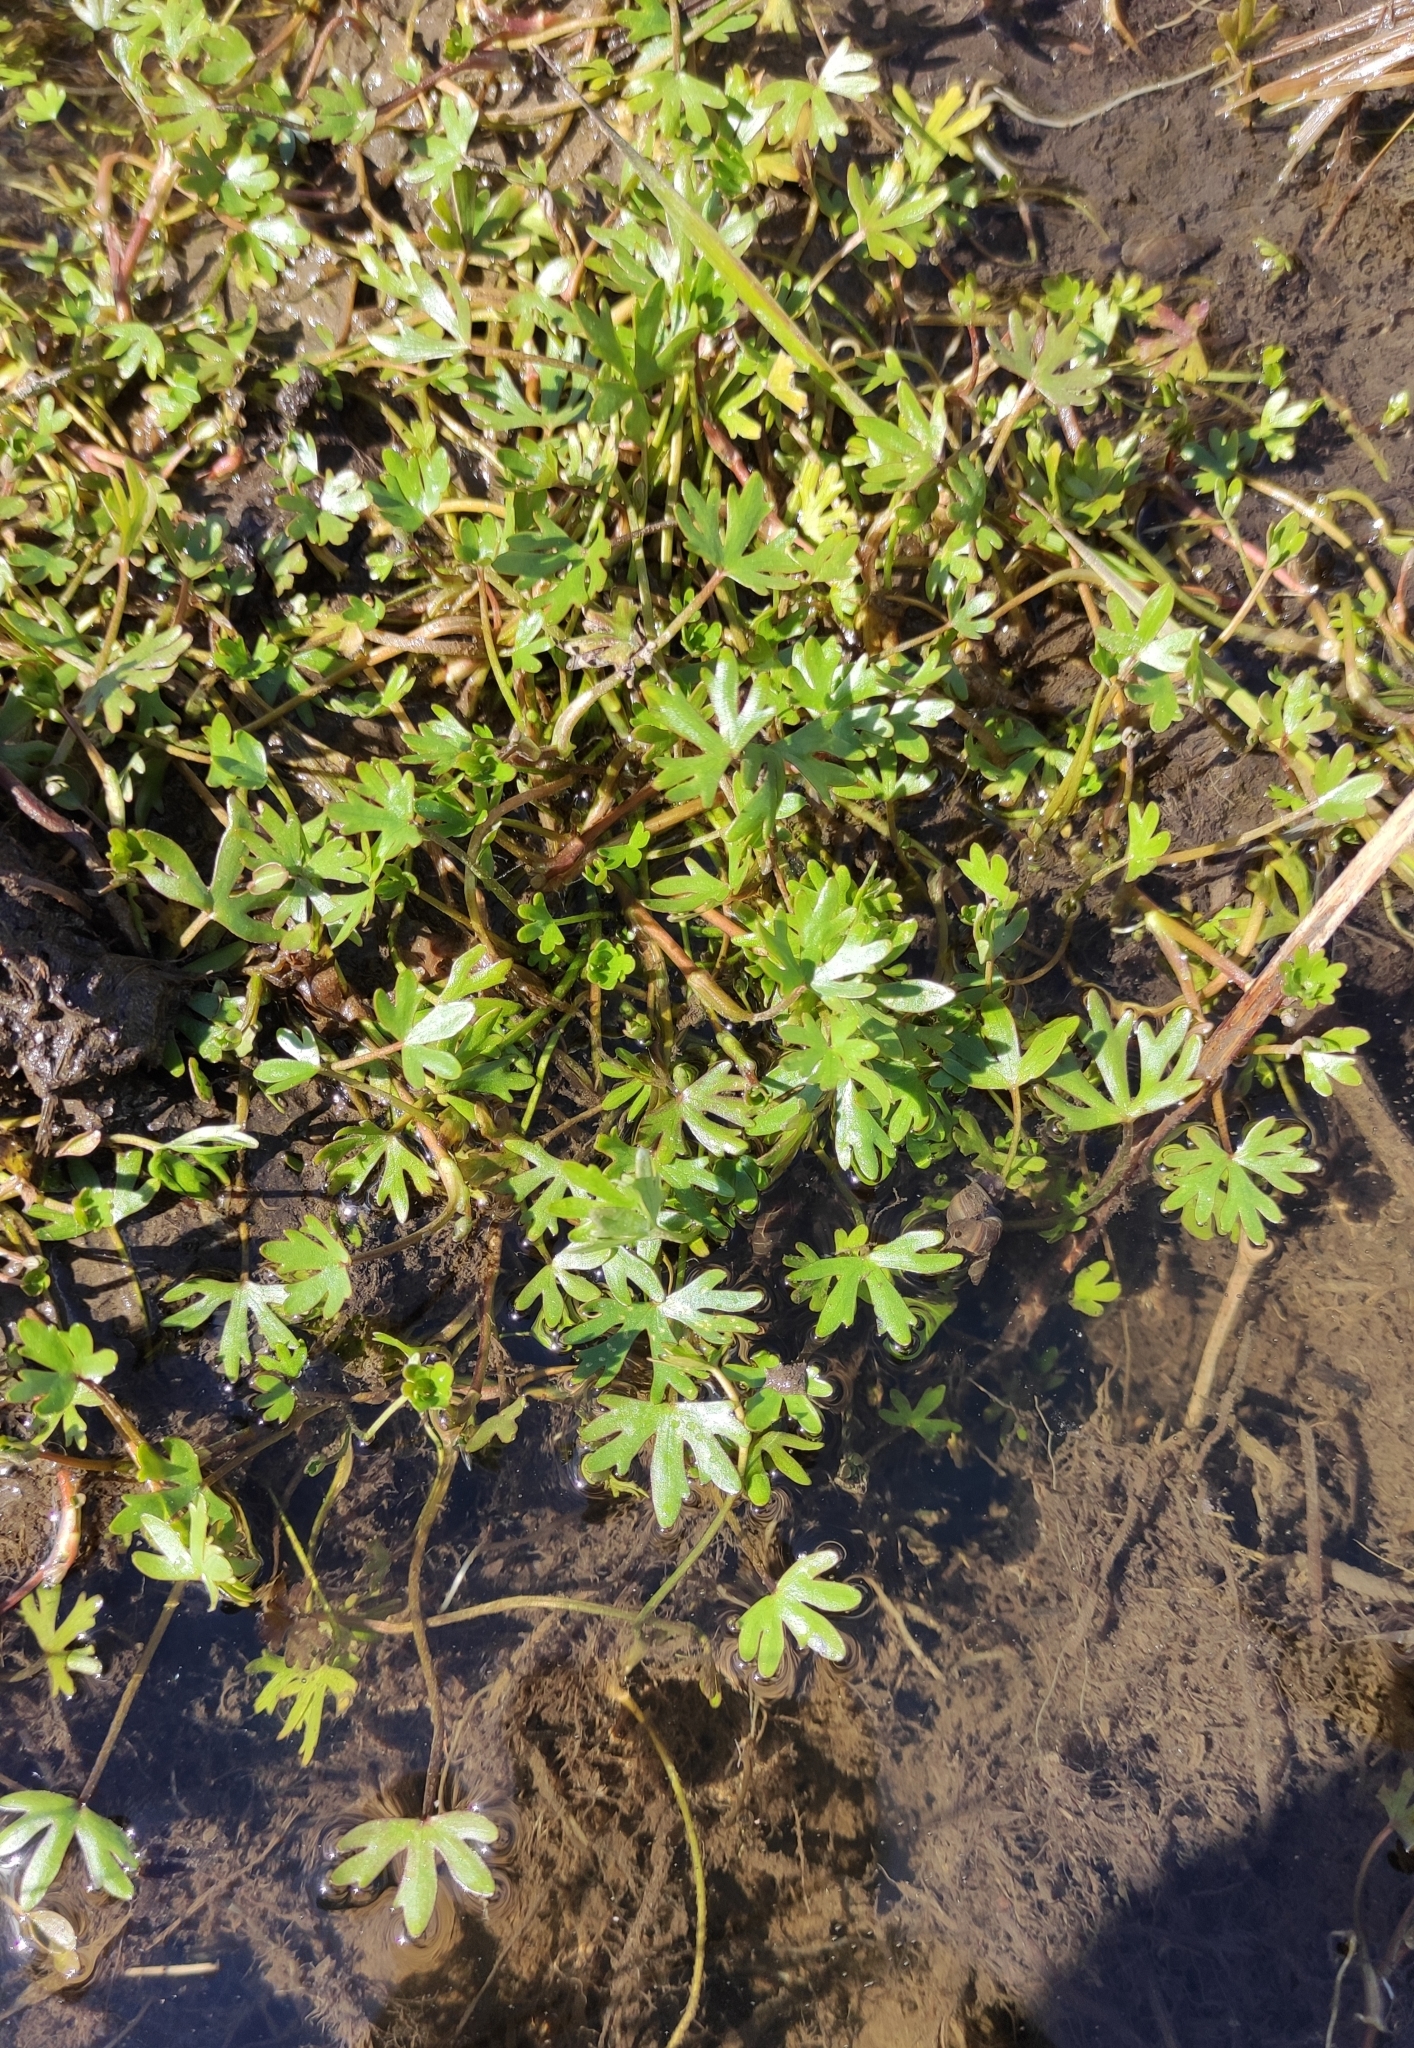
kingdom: Plantae
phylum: Tracheophyta
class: Magnoliopsida
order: Ranunculales
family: Ranunculaceae
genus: Ranunculus
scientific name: Ranunculus gmelinii
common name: Gmelin's buttercup
